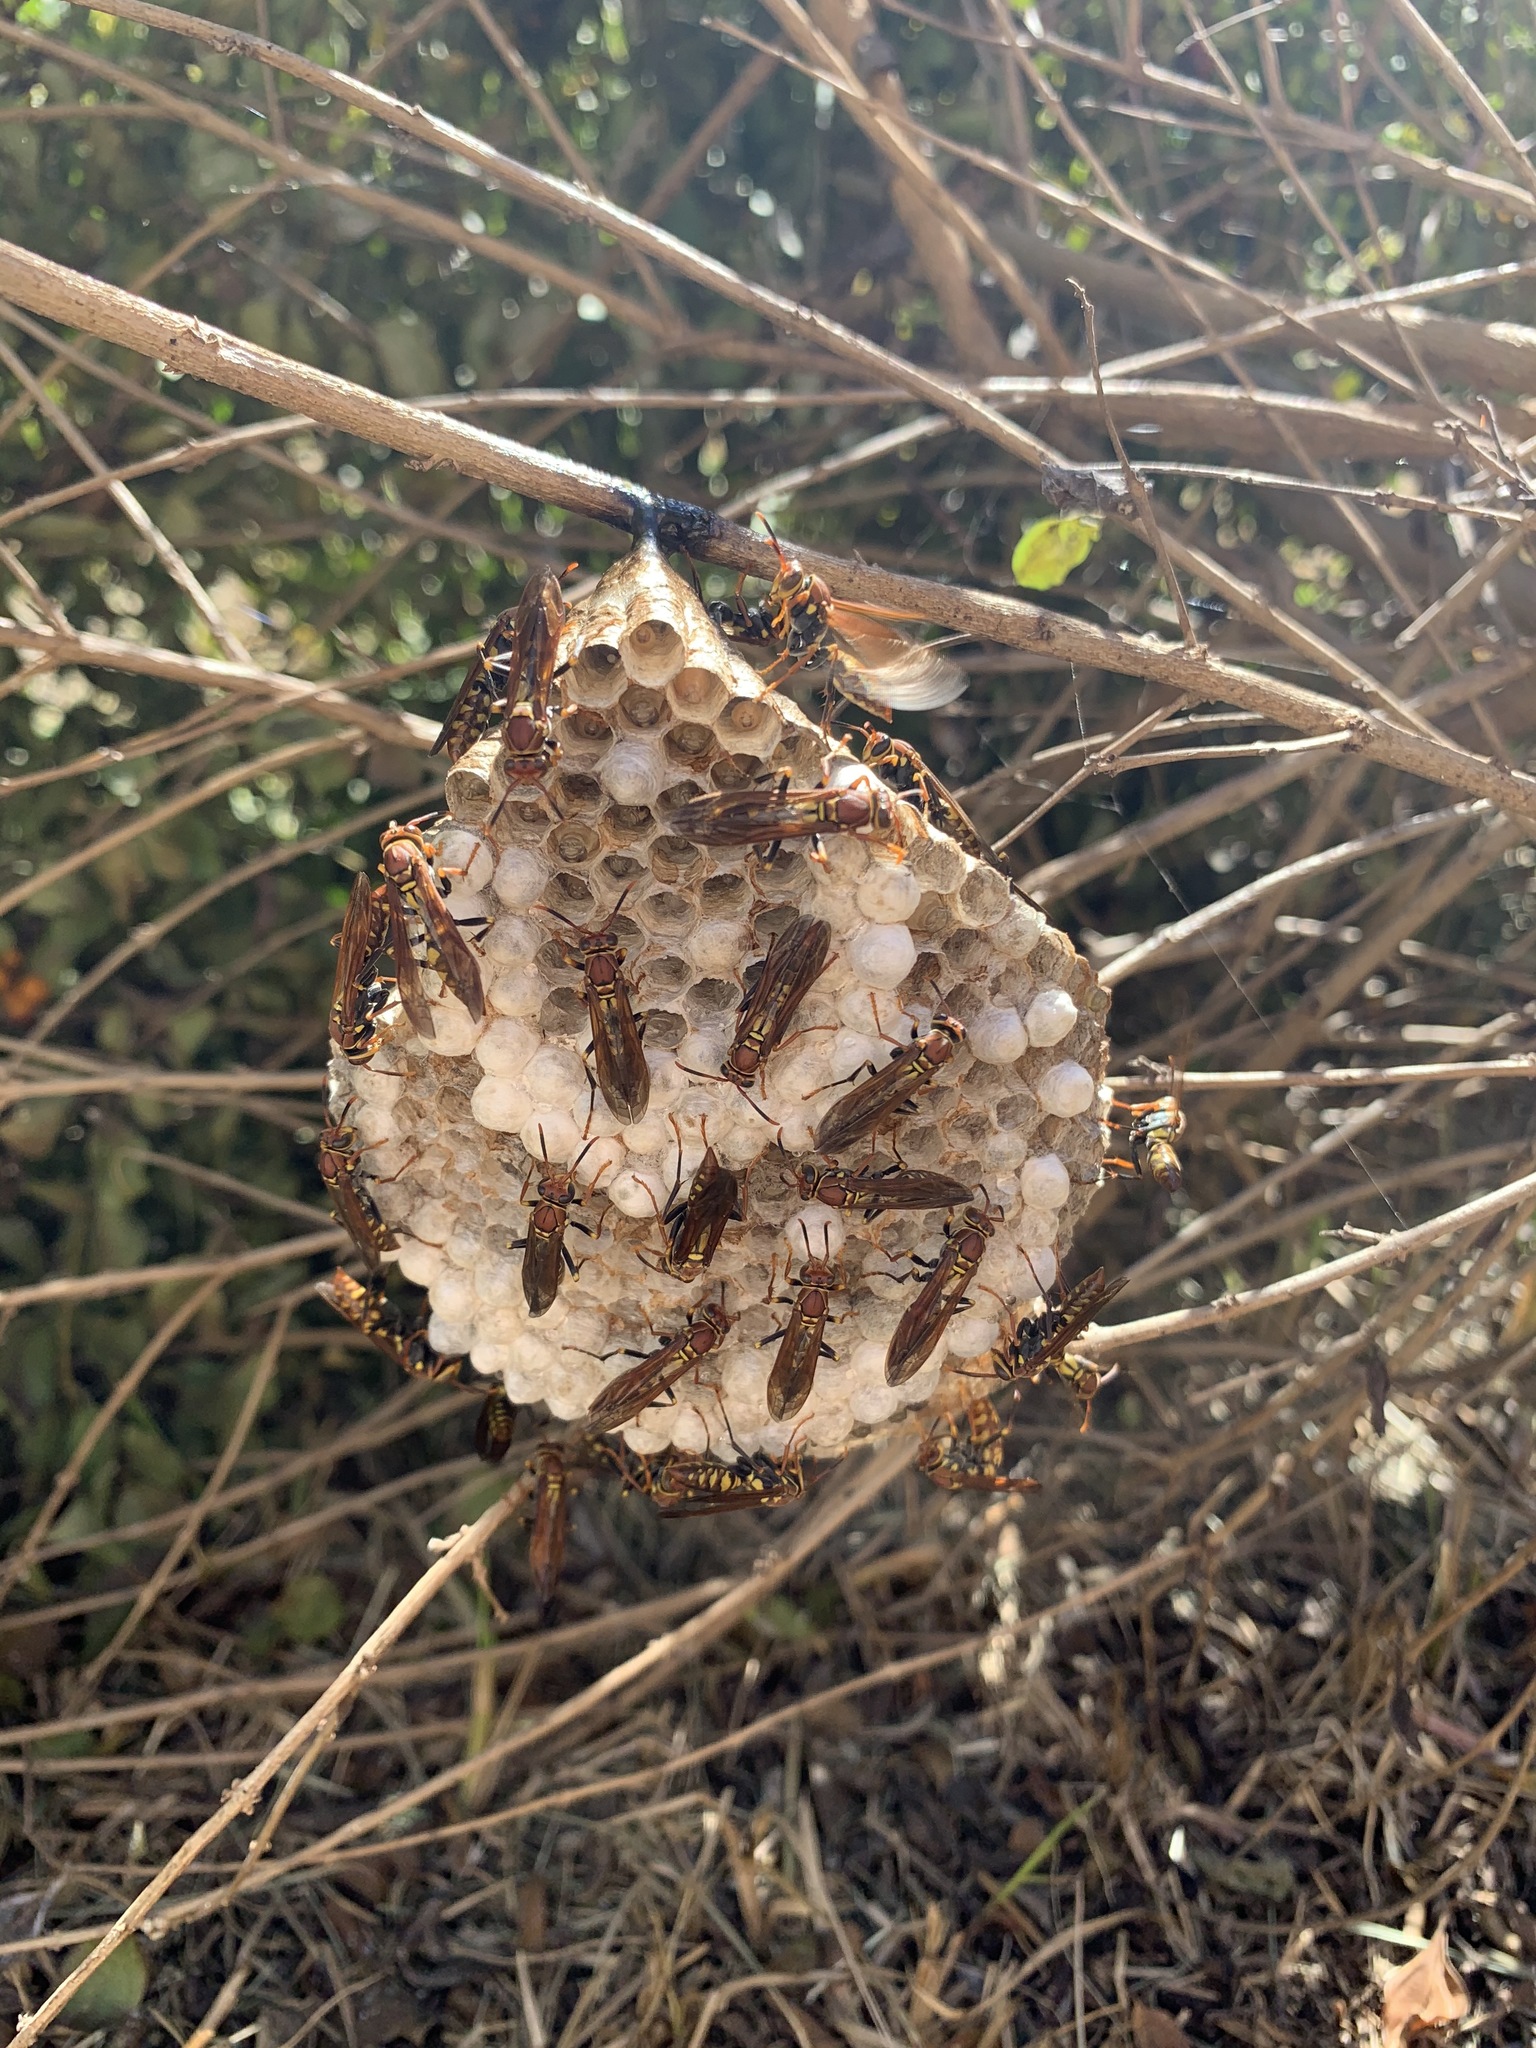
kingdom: Animalia
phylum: Arthropoda
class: Insecta
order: Hymenoptera
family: Eumenidae
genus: Polistes
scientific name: Polistes versicolor
